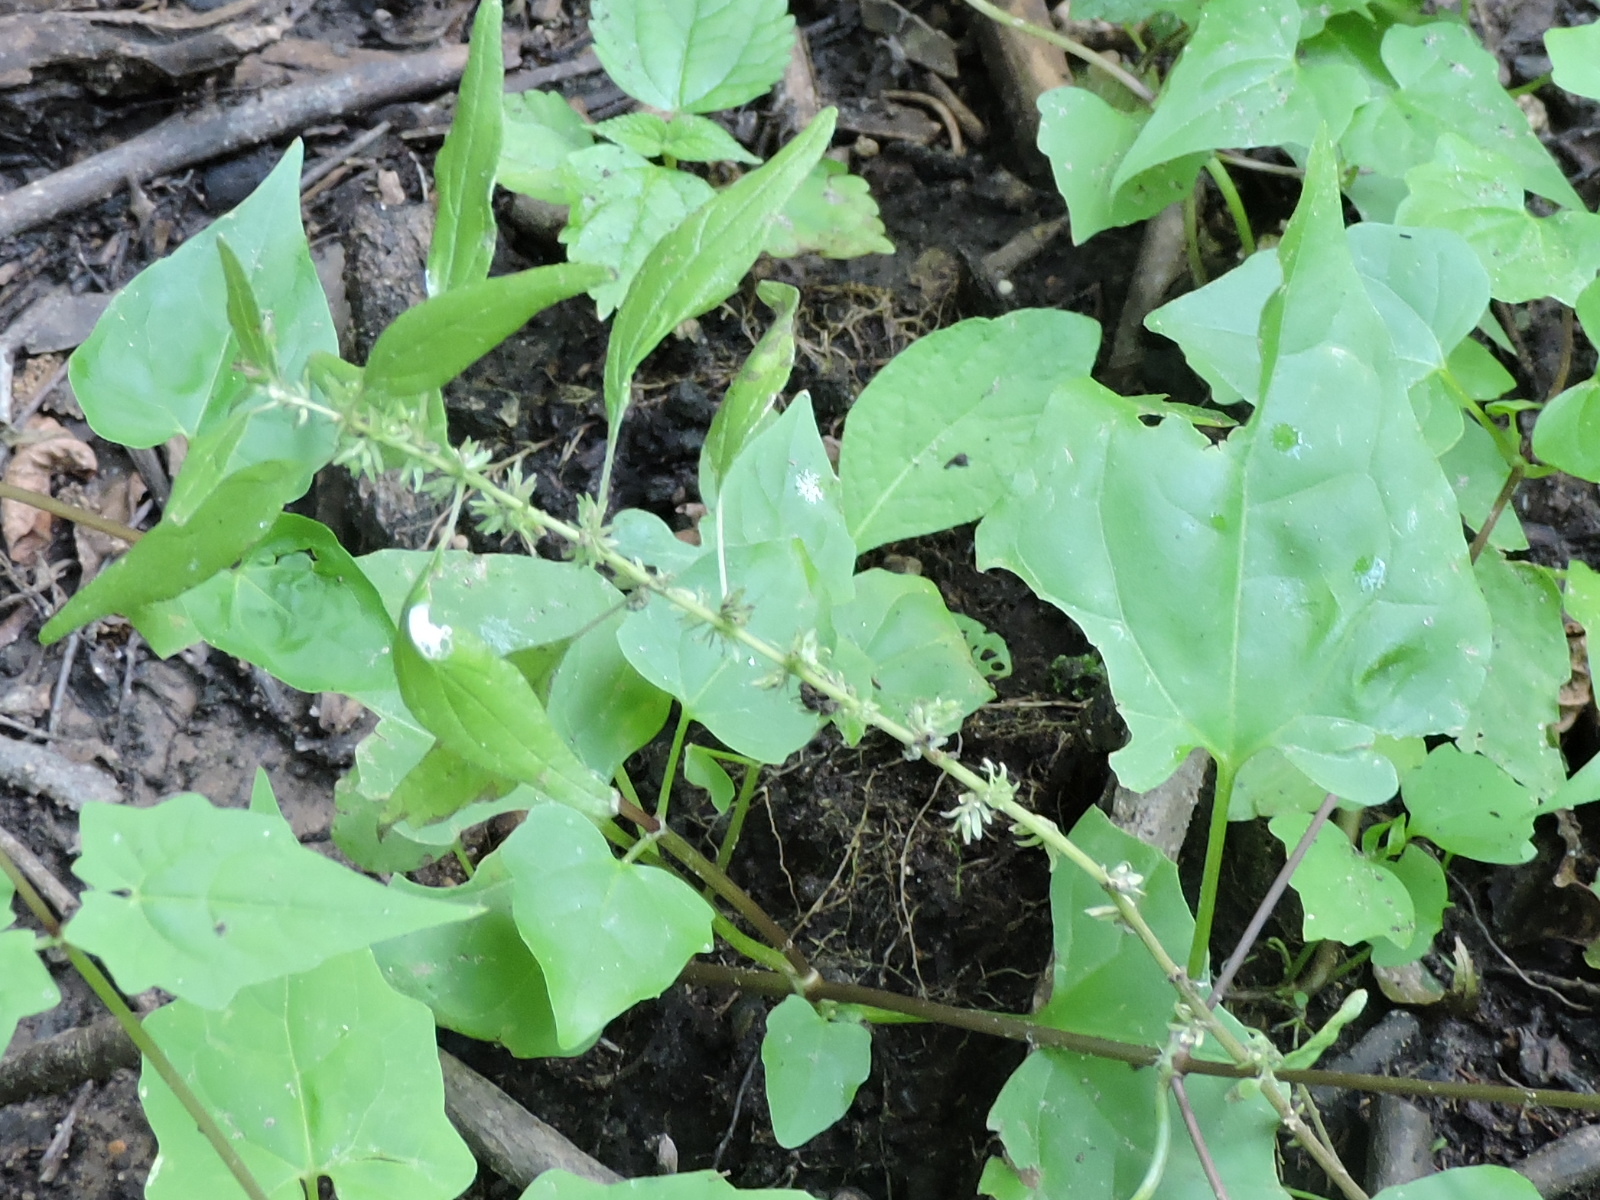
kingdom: Plantae
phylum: Tracheophyta
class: Magnoliopsida
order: Rosales
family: Urticaceae
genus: Parietaria
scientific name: Parietaria pensylvanica
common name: Pennsylvania pellitory
